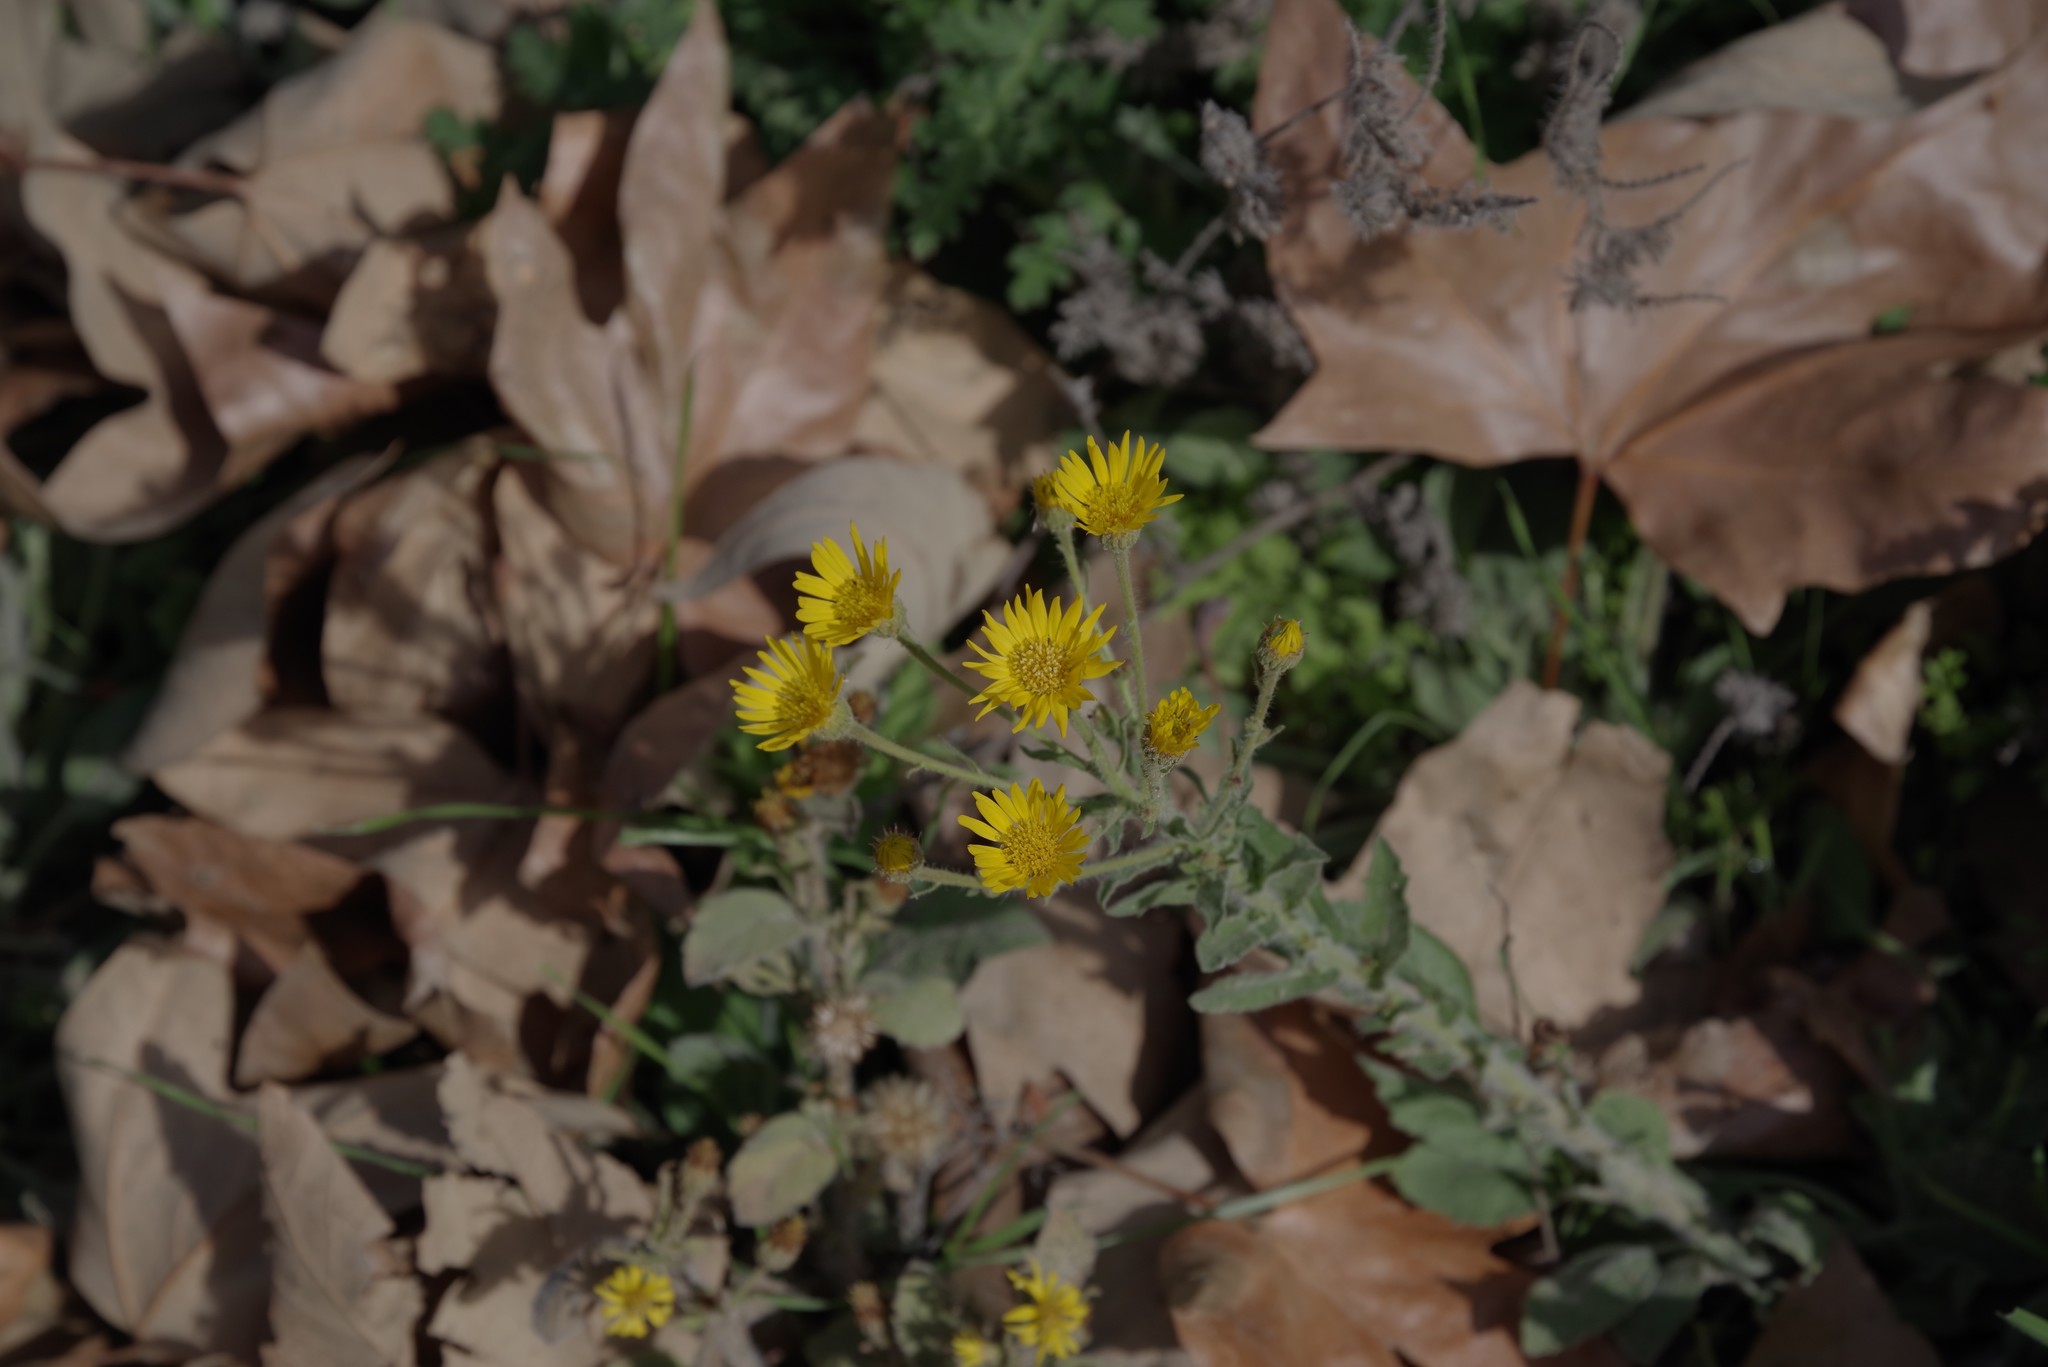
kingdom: Plantae
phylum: Tracheophyta
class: Magnoliopsida
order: Asterales
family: Asteraceae
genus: Heterotheca
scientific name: Heterotheca grandiflora
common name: Telegraphweed
